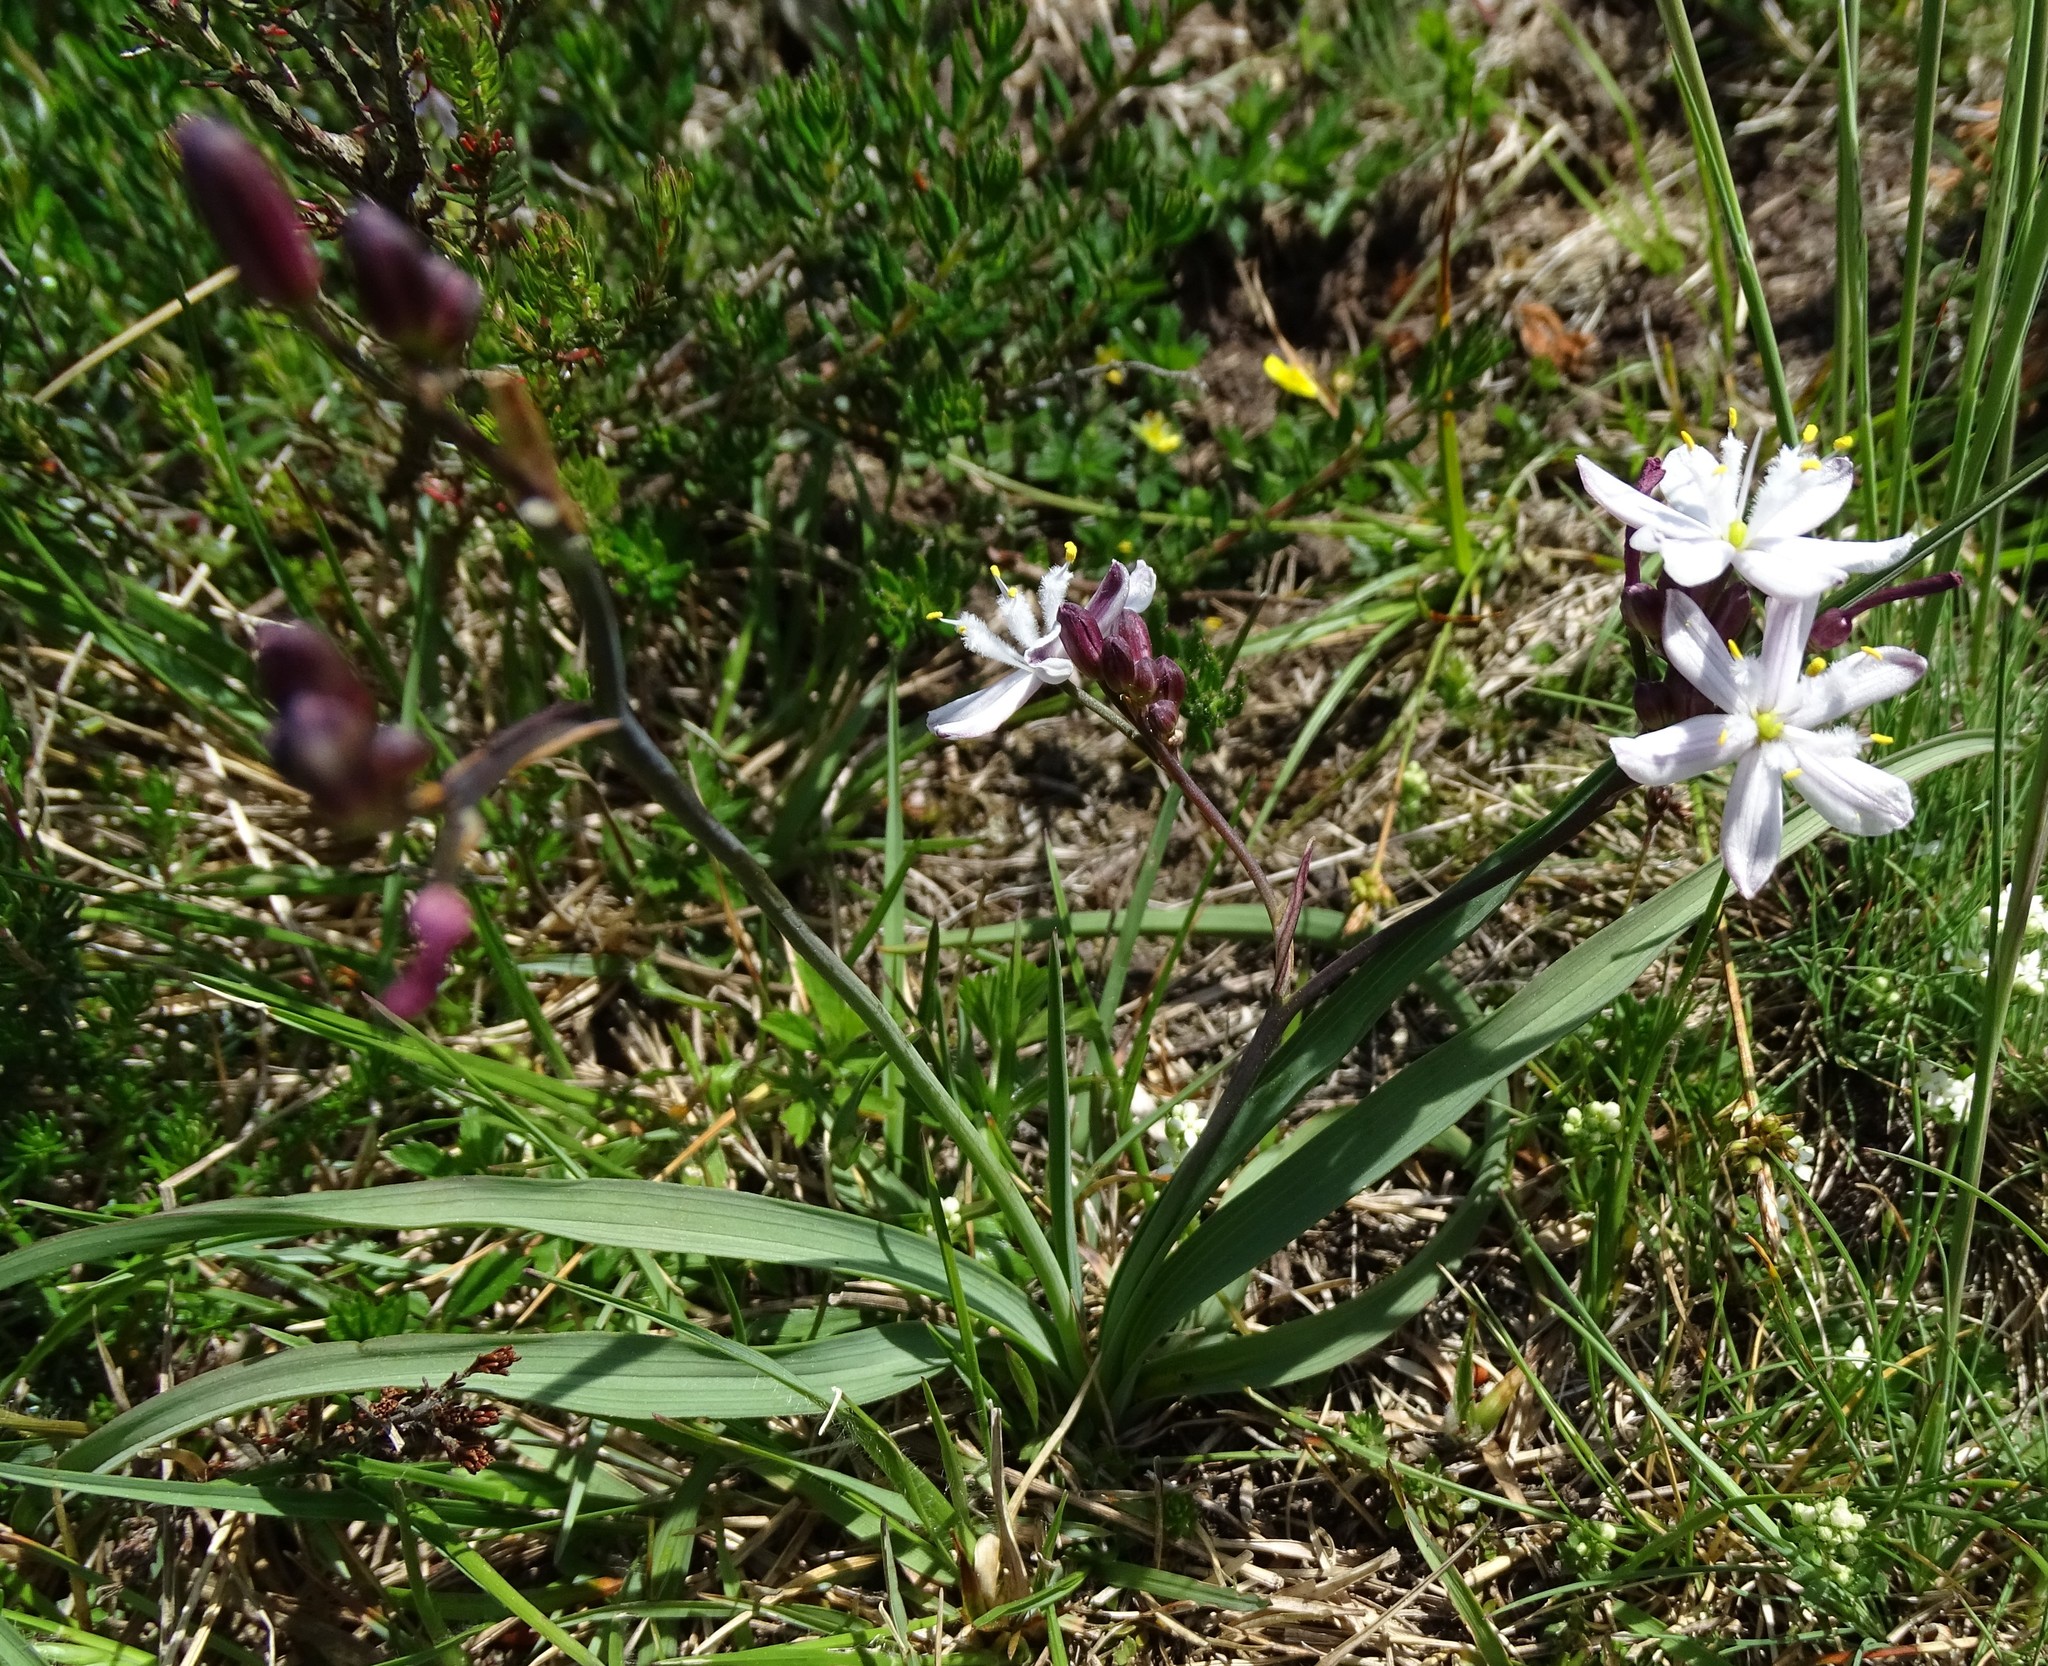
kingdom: Plantae
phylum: Tracheophyta
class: Liliopsida
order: Asparagales
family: Asphodelaceae
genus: Simethis
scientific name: Simethis mattiazzii
